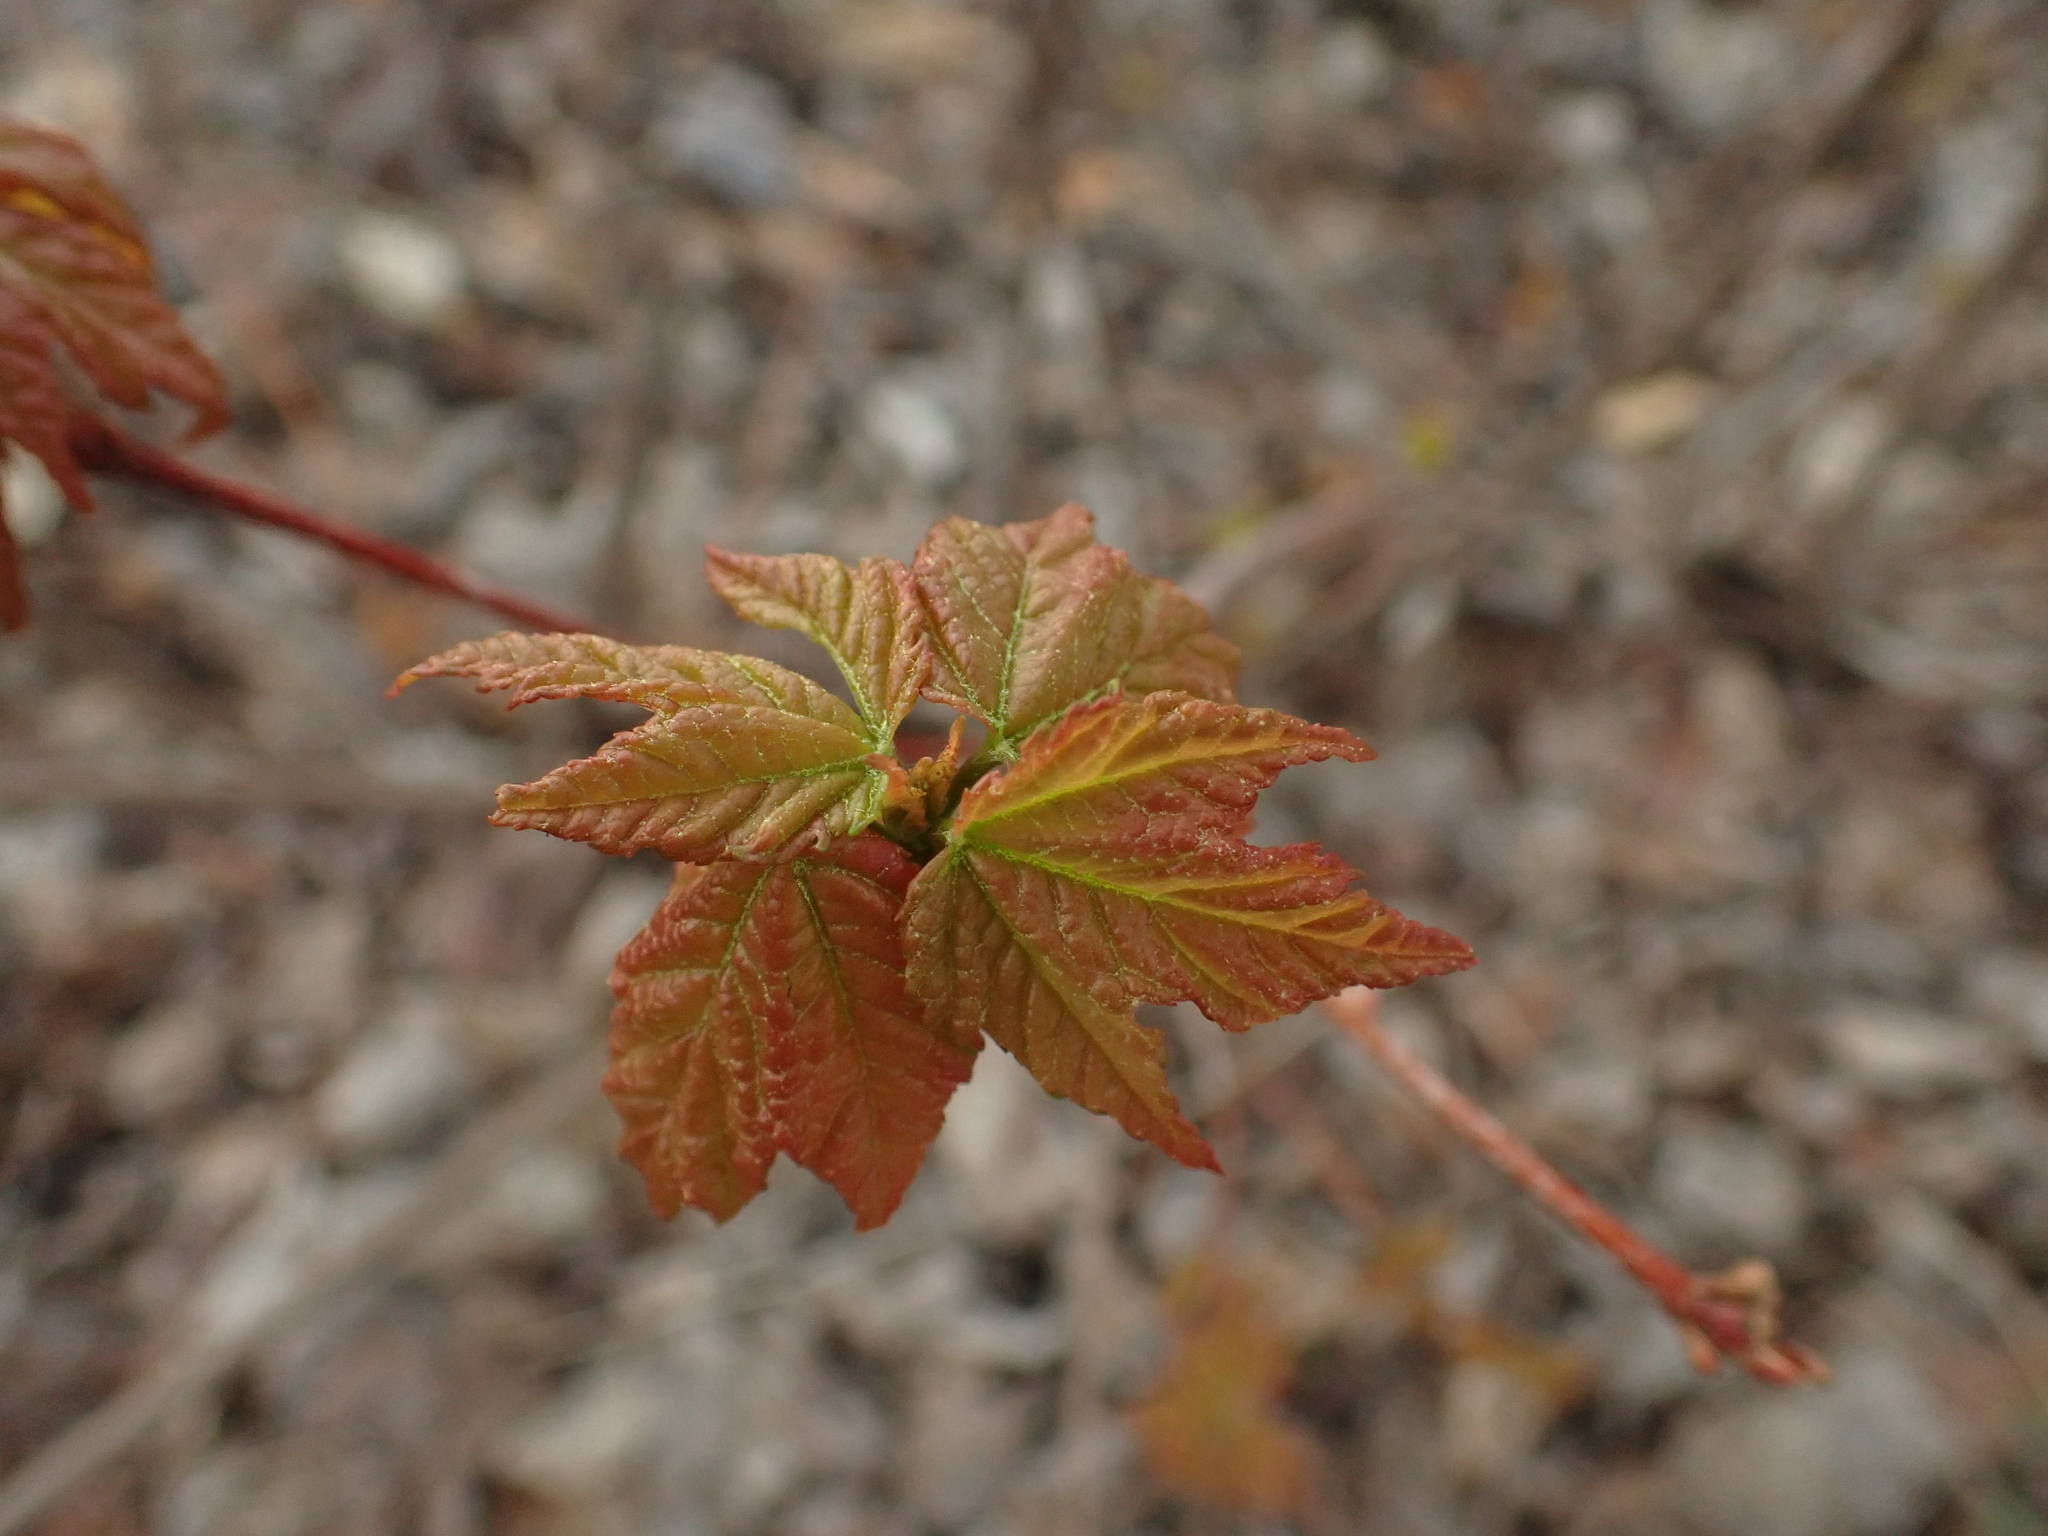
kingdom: Plantae
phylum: Tracheophyta
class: Magnoliopsida
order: Sapindales
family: Sapindaceae
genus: Acer
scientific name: Acer rubrum
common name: Red maple
